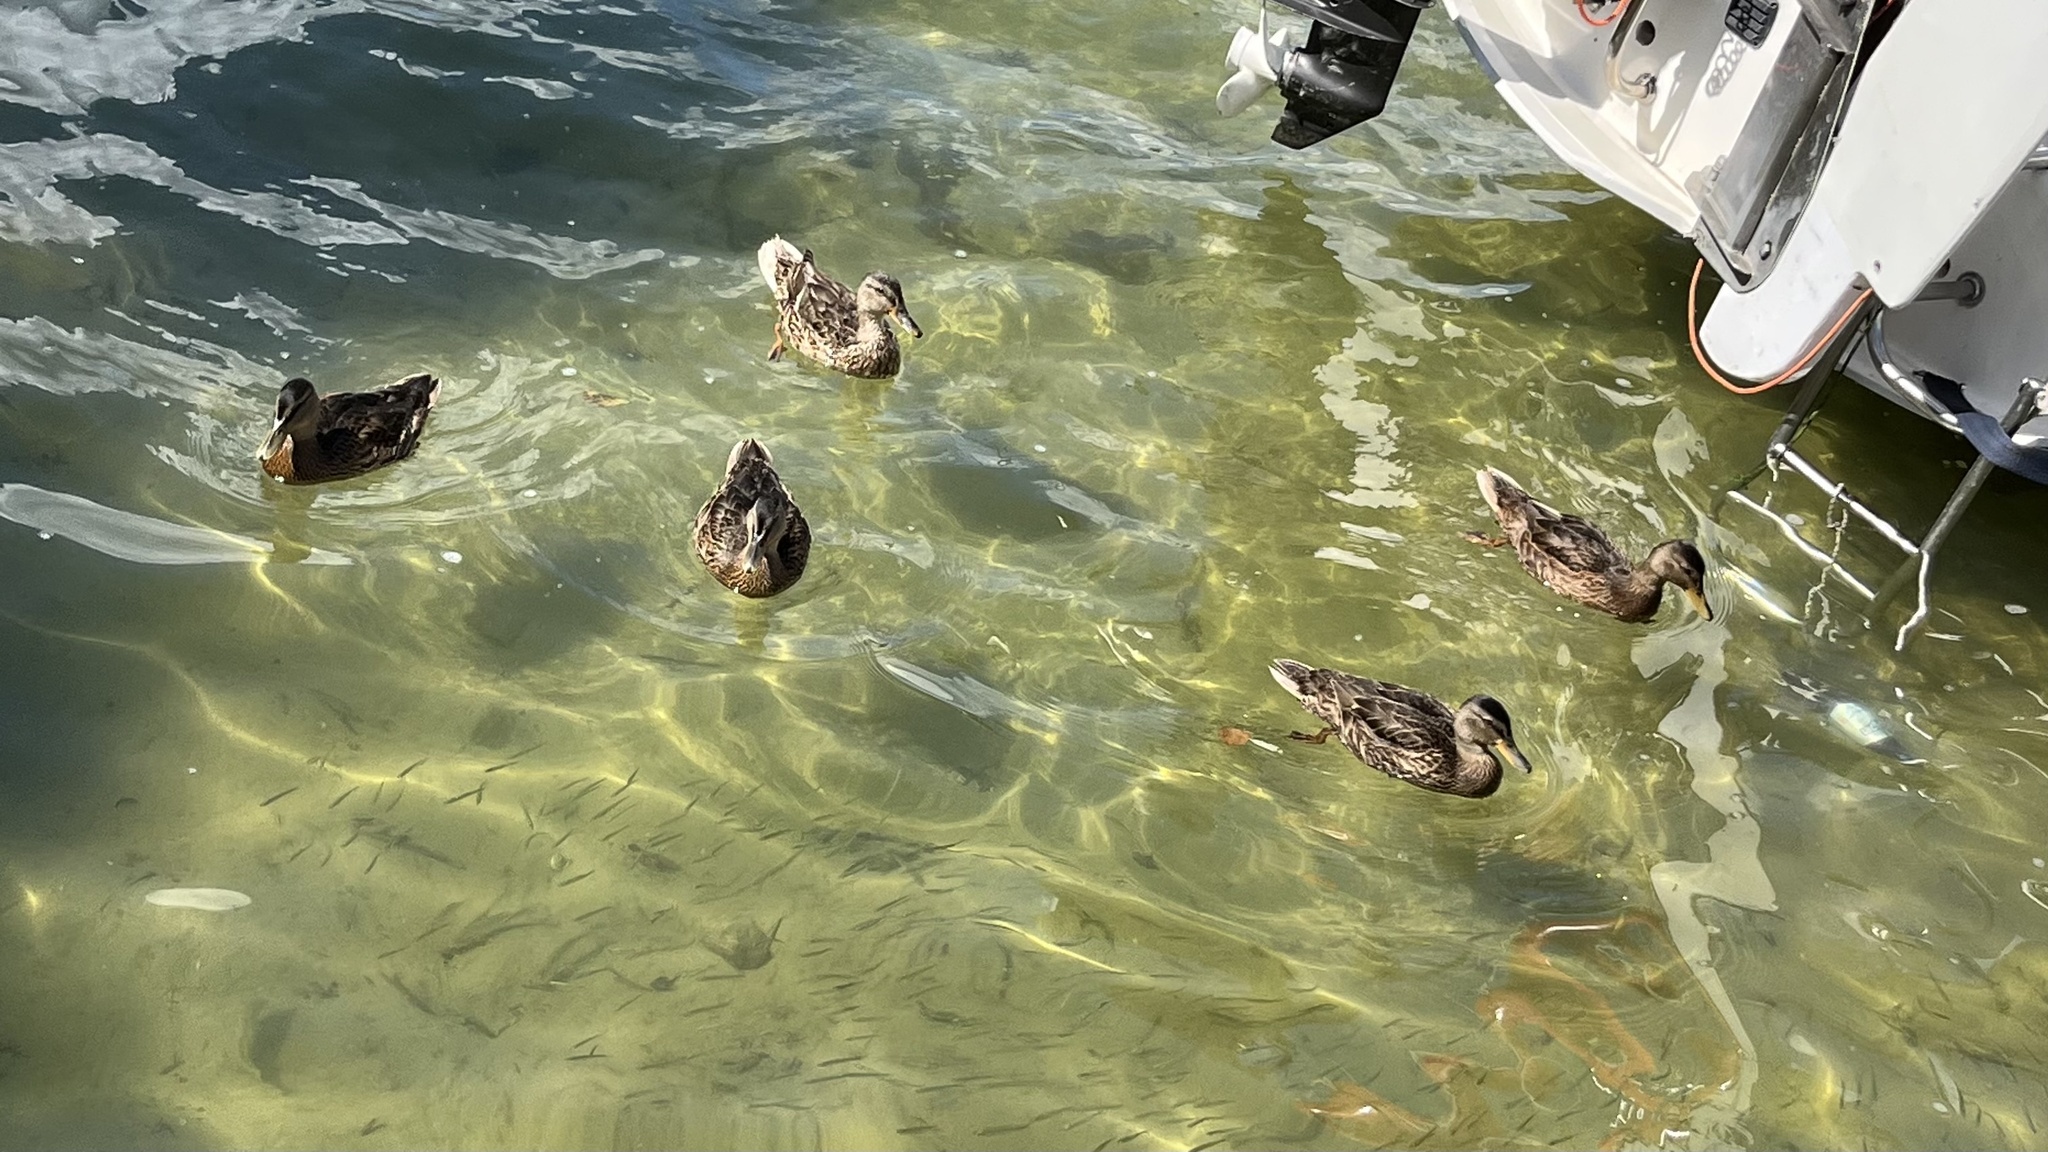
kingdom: Animalia
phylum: Chordata
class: Aves
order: Anseriformes
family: Anatidae
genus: Anas
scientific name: Anas platyrhynchos
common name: Mallard
